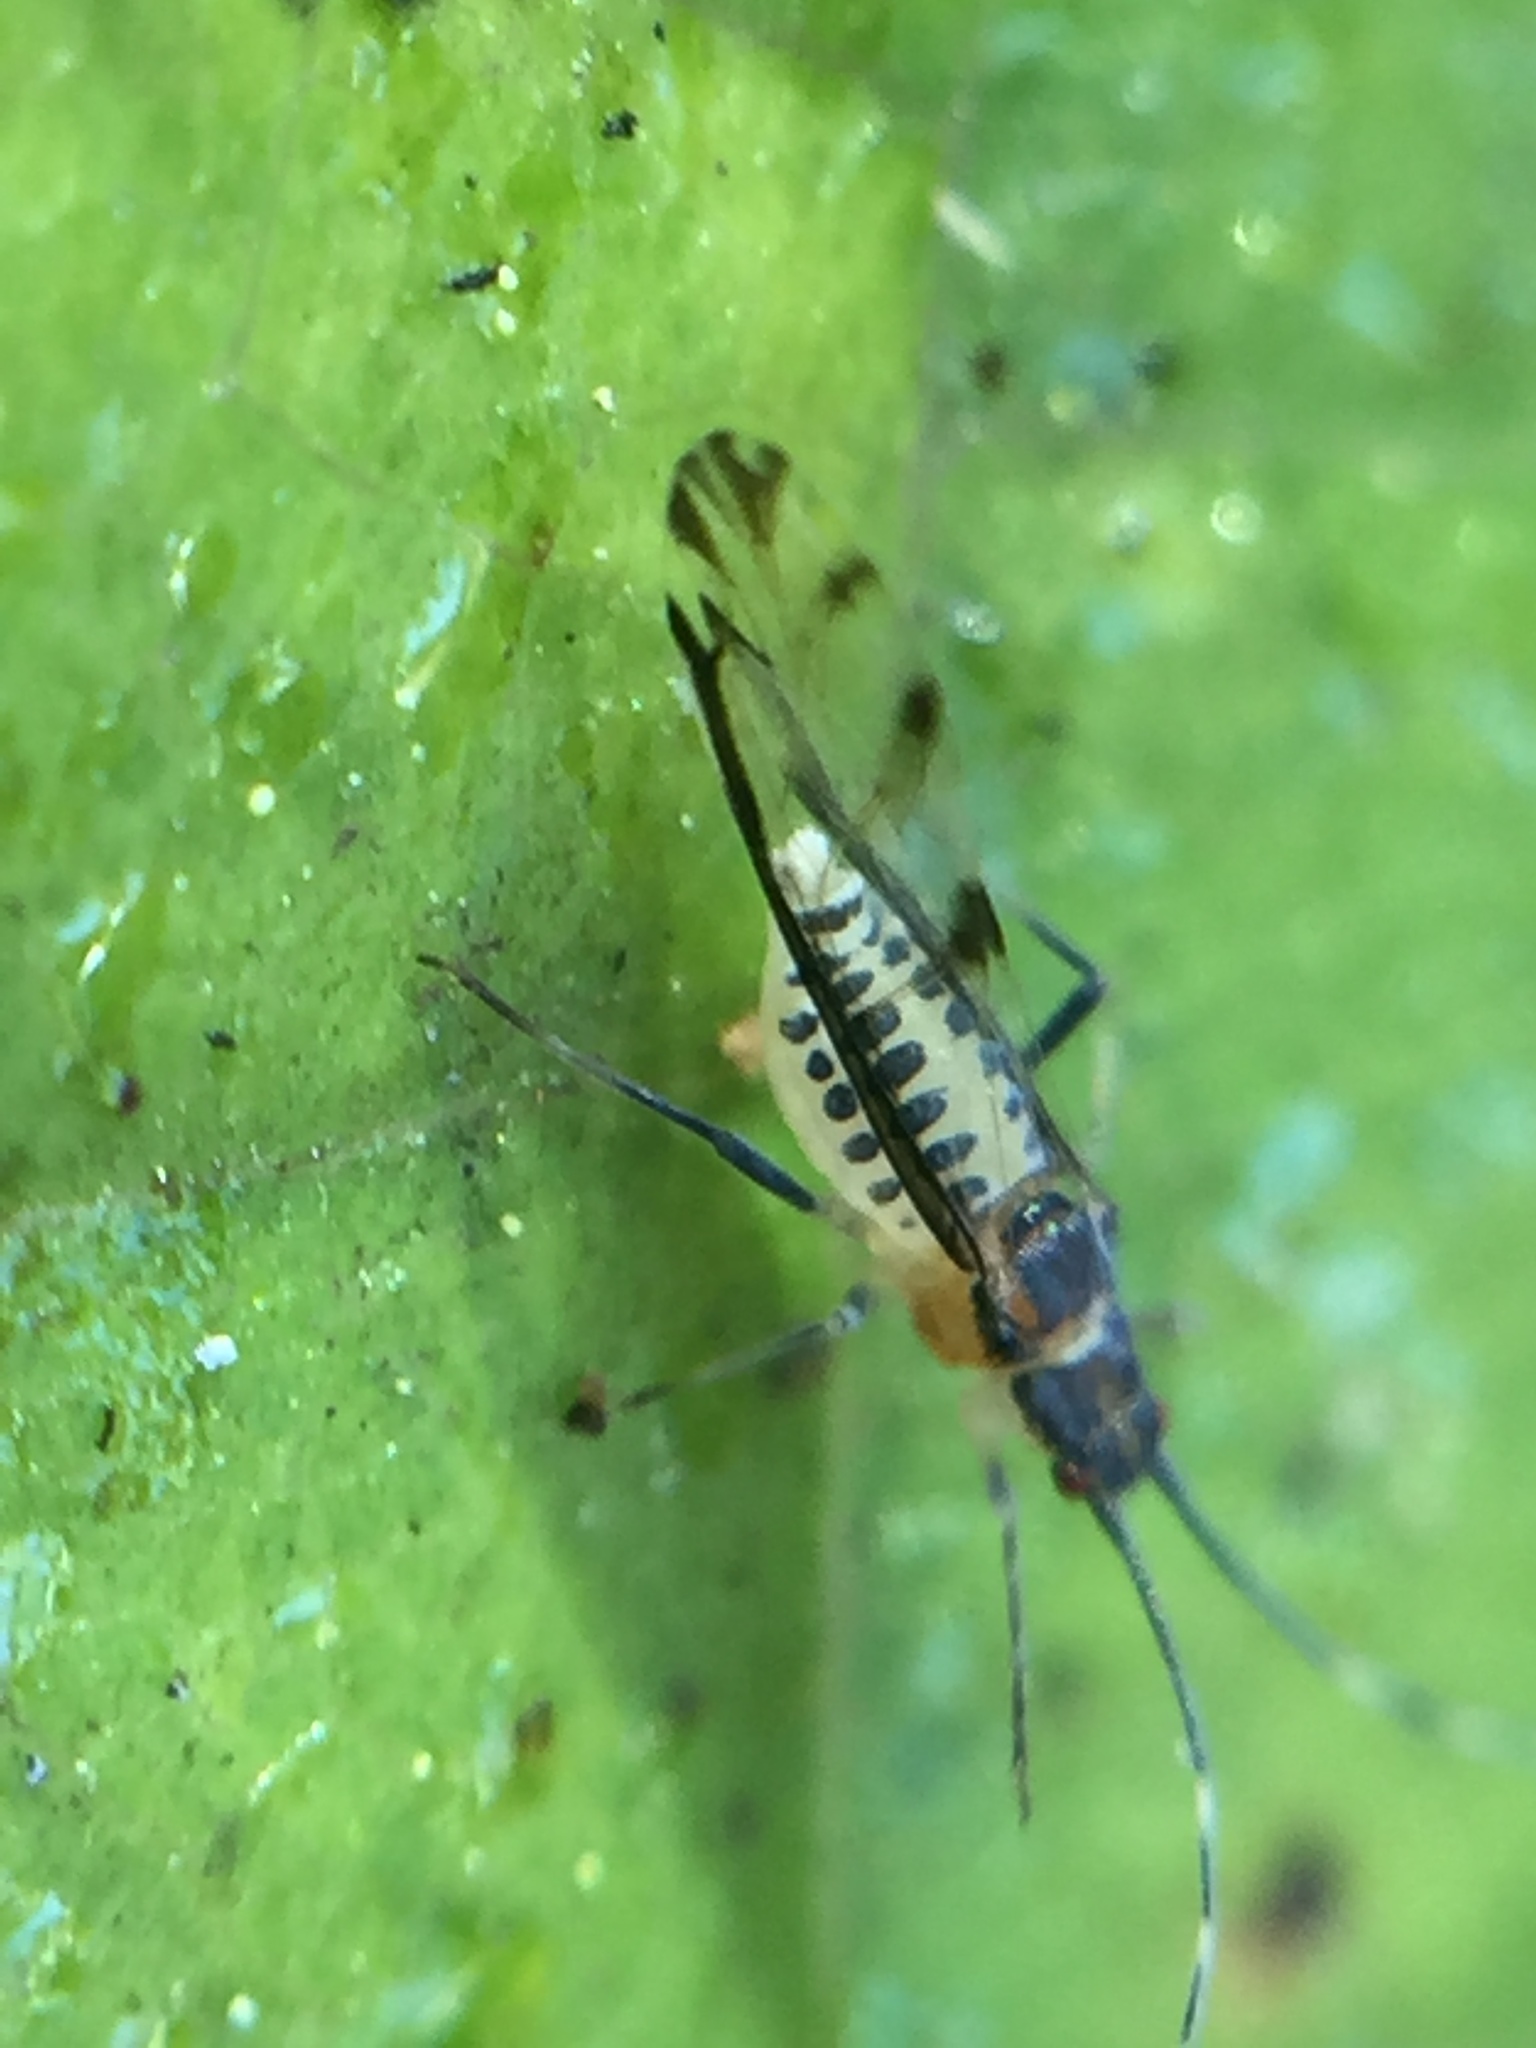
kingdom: Animalia
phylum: Arthropoda
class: Insecta
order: Hemiptera
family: Aphididae
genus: Eucallipterus
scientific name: Eucallipterus tiliae
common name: Aphid
